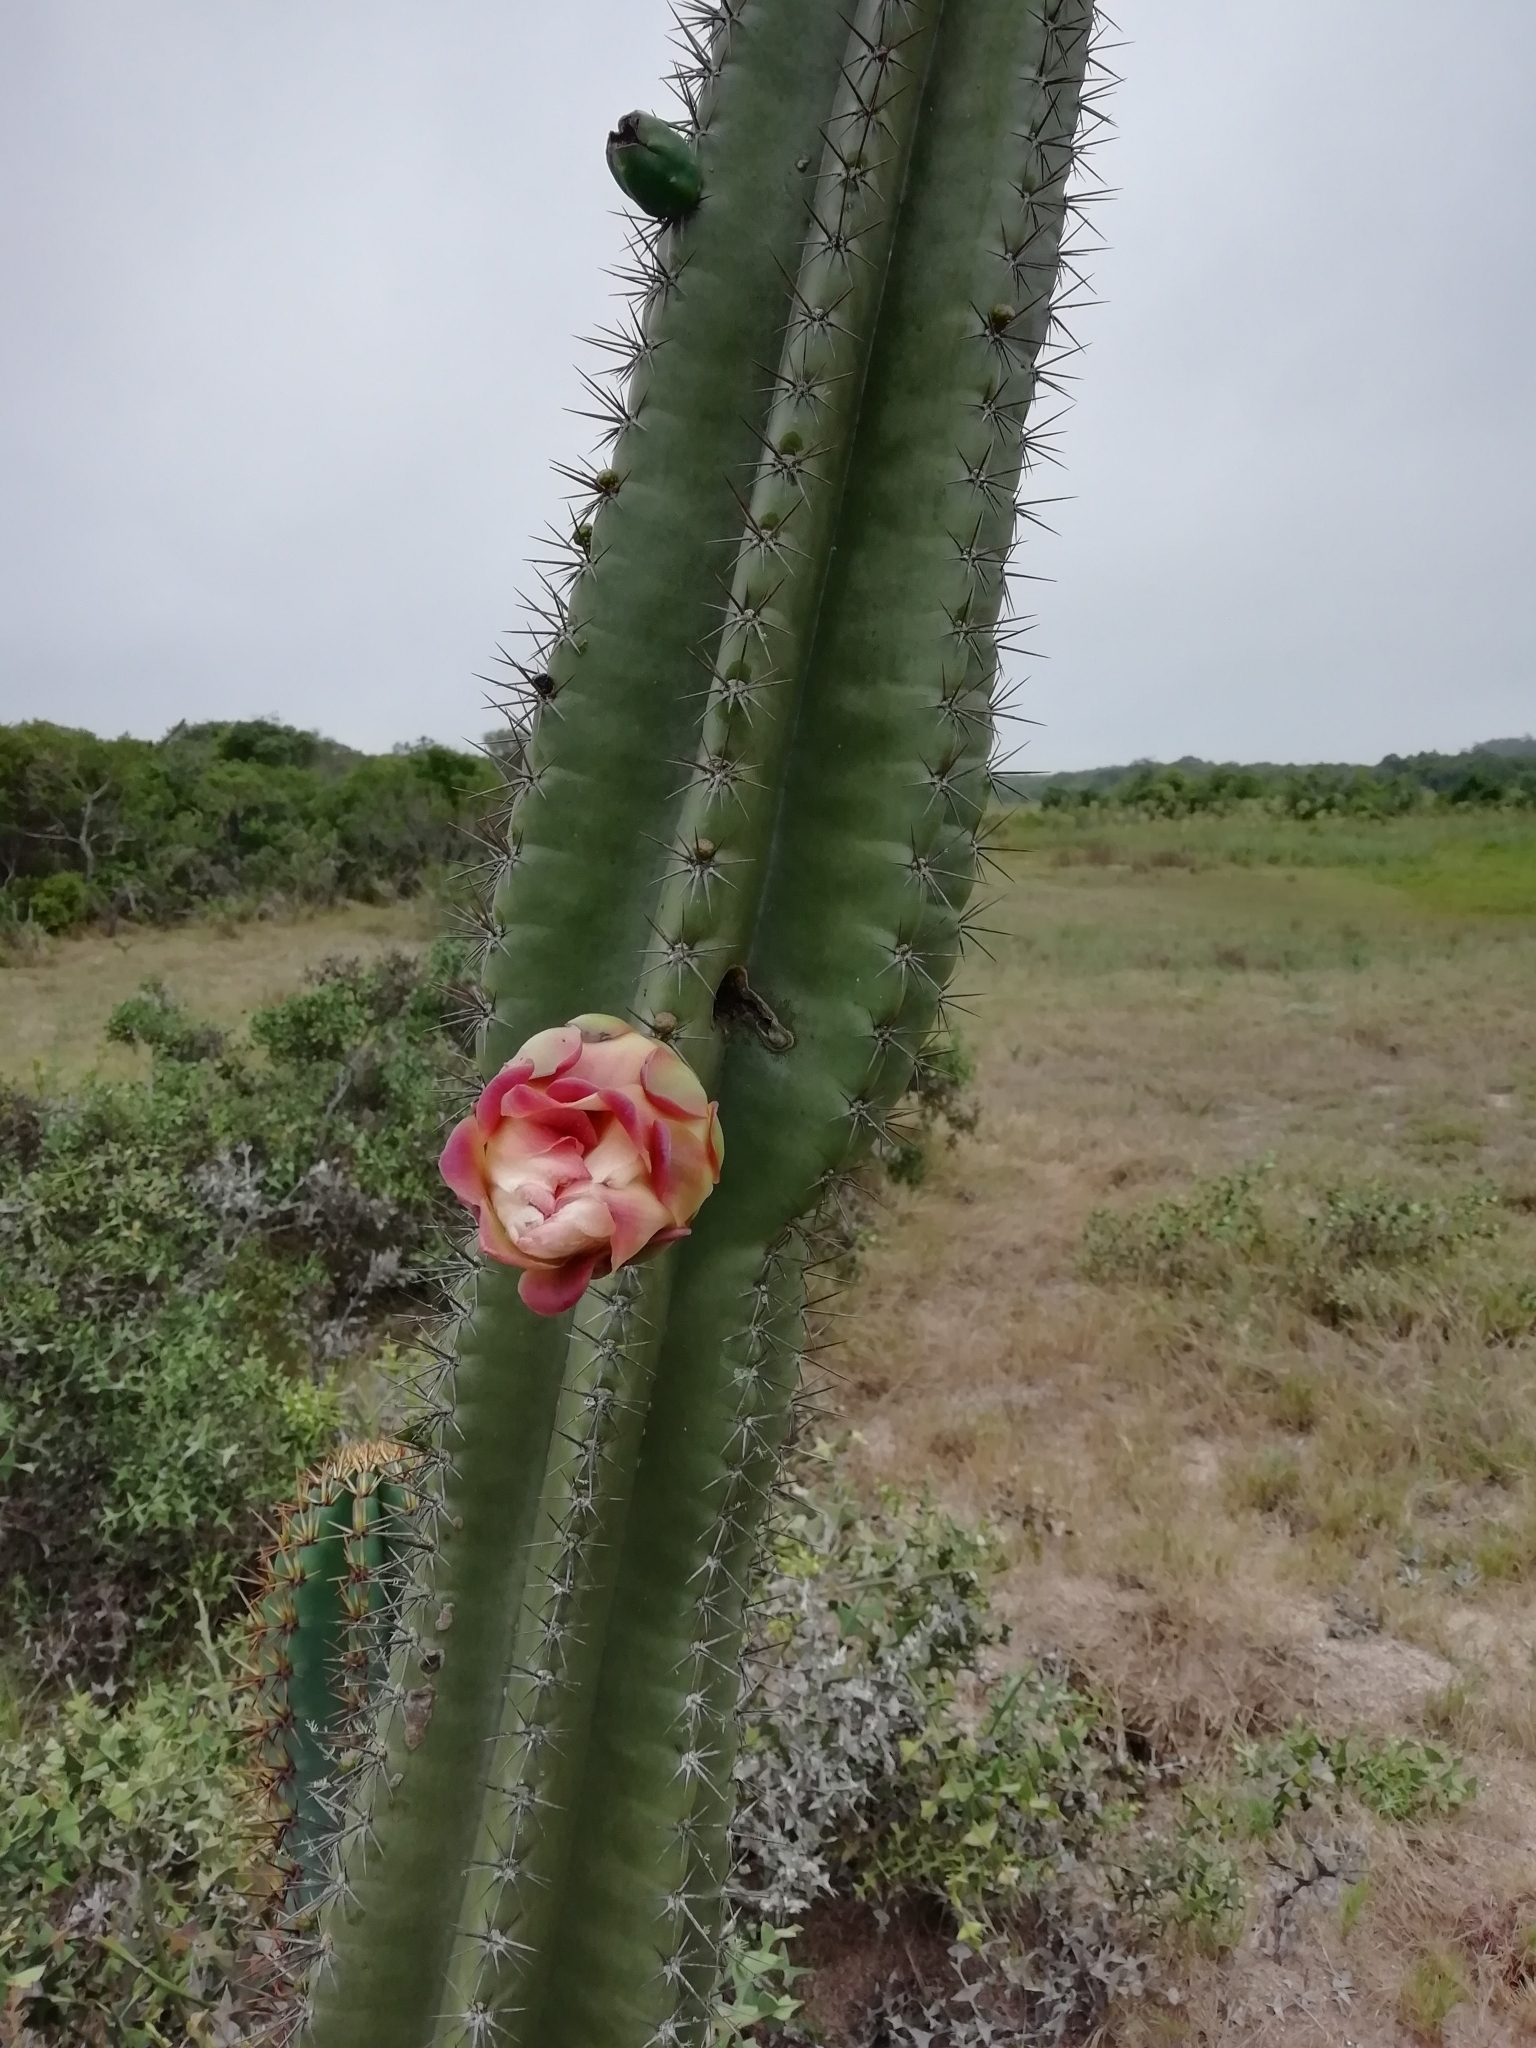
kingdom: Plantae
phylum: Tracheophyta
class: Magnoliopsida
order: Caryophyllales
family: Cactaceae
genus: Cereus
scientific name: Cereus hildmannianus
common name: Hedge cactus
